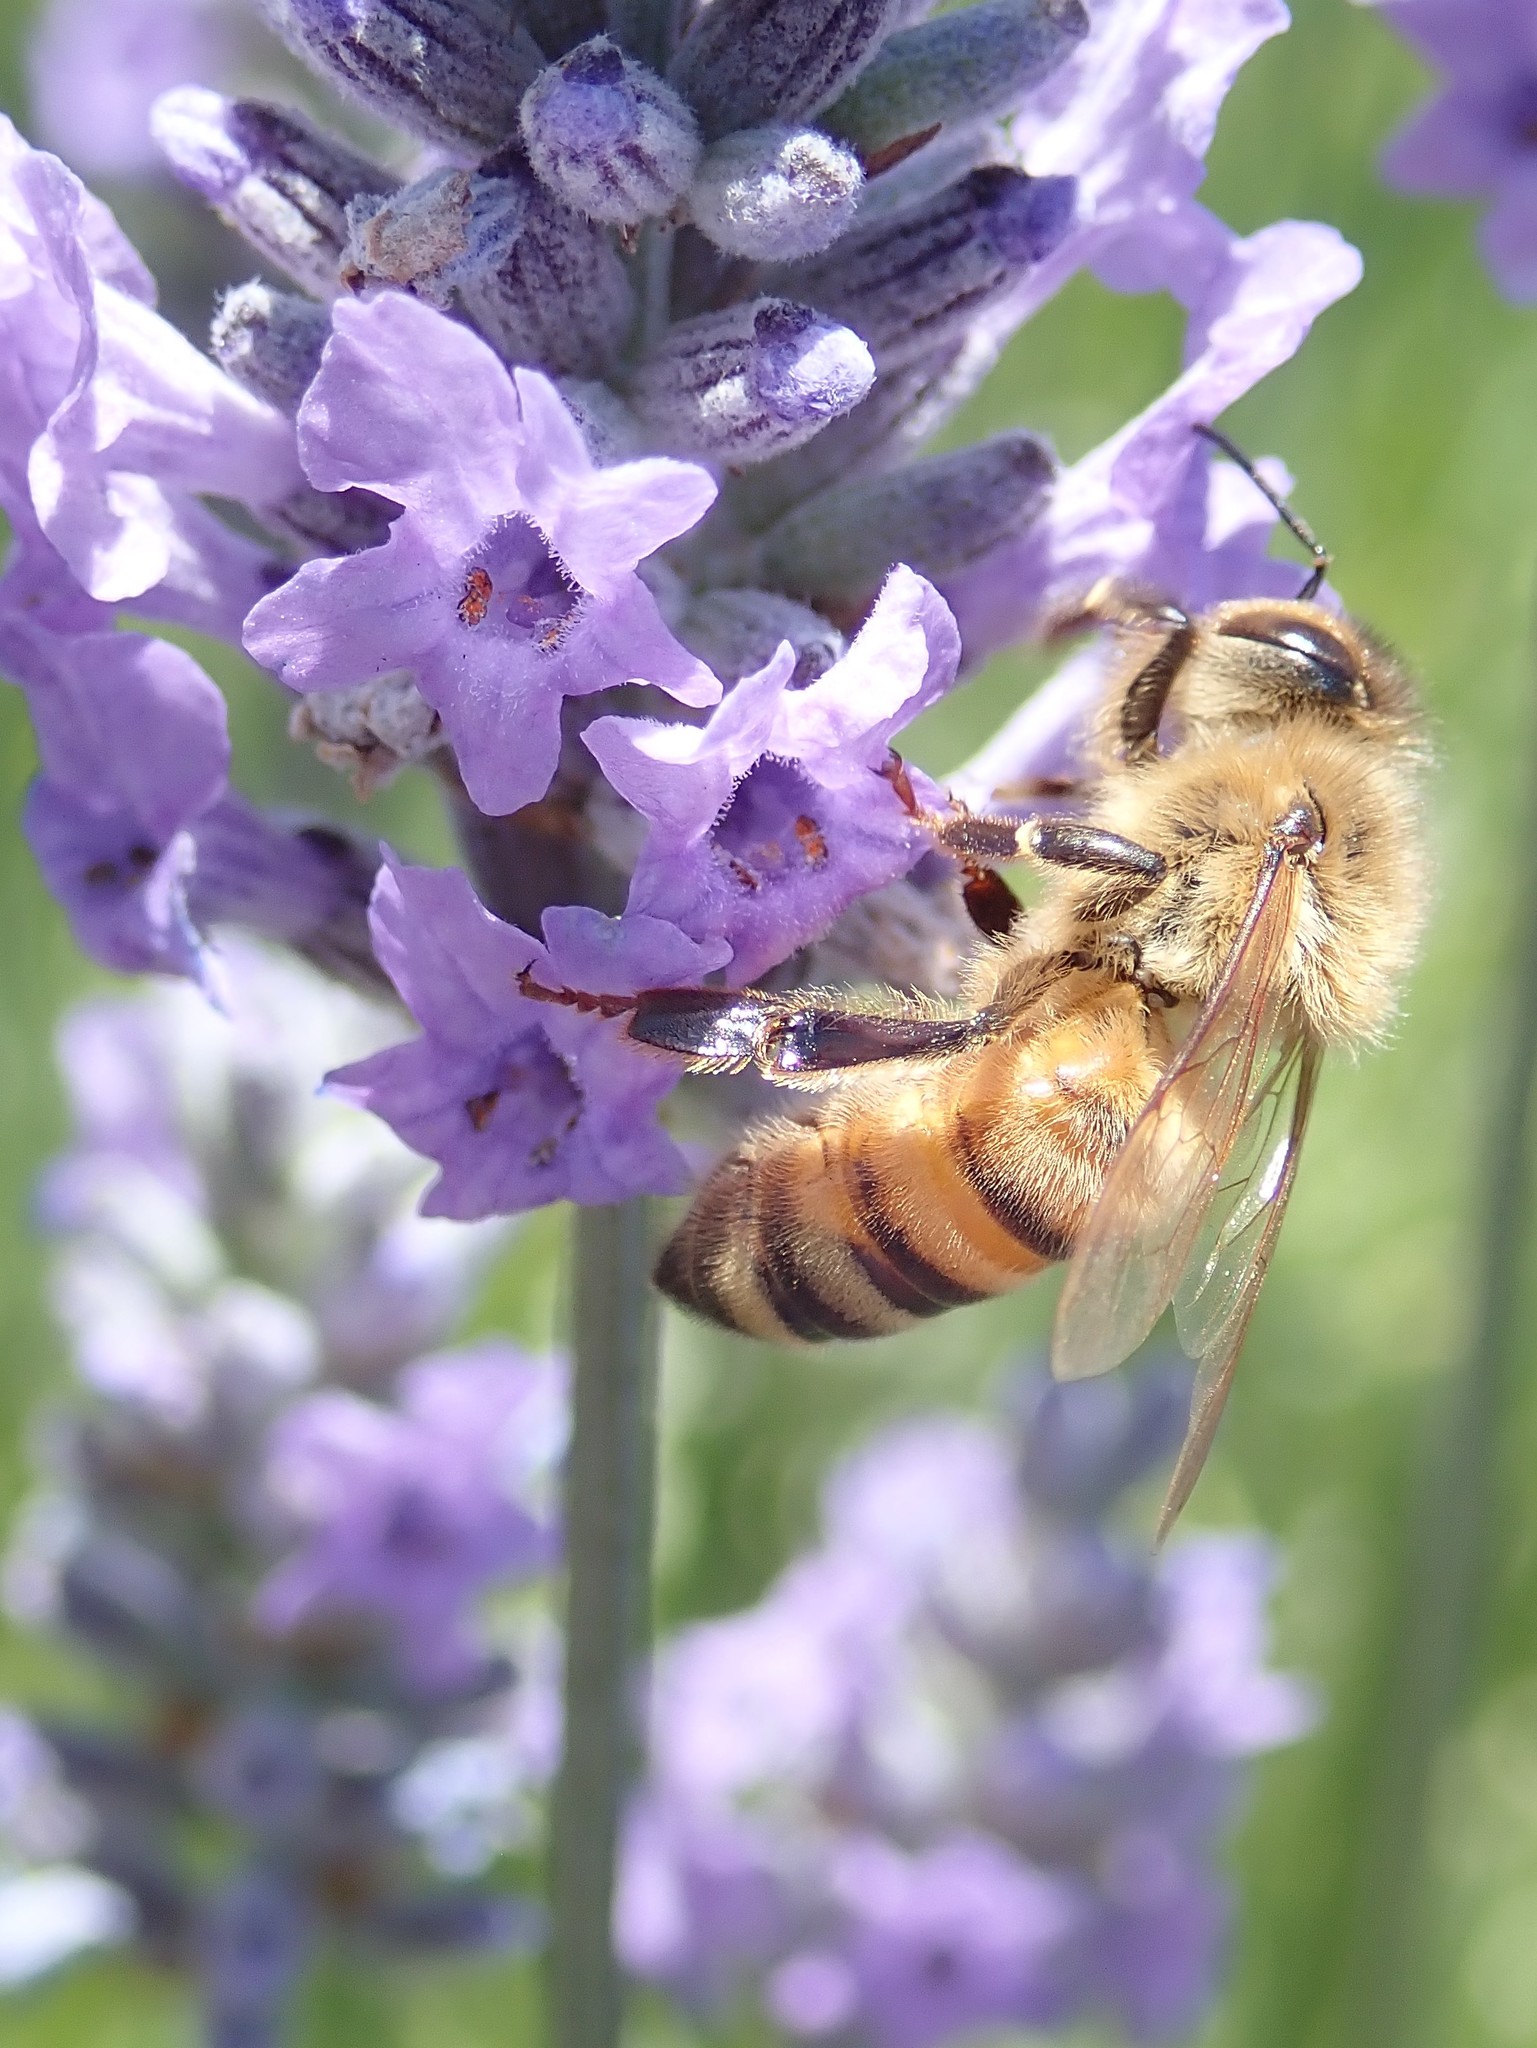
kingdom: Animalia
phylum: Arthropoda
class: Insecta
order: Hymenoptera
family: Apidae
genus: Apis
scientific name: Apis mellifera
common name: Honey bee
